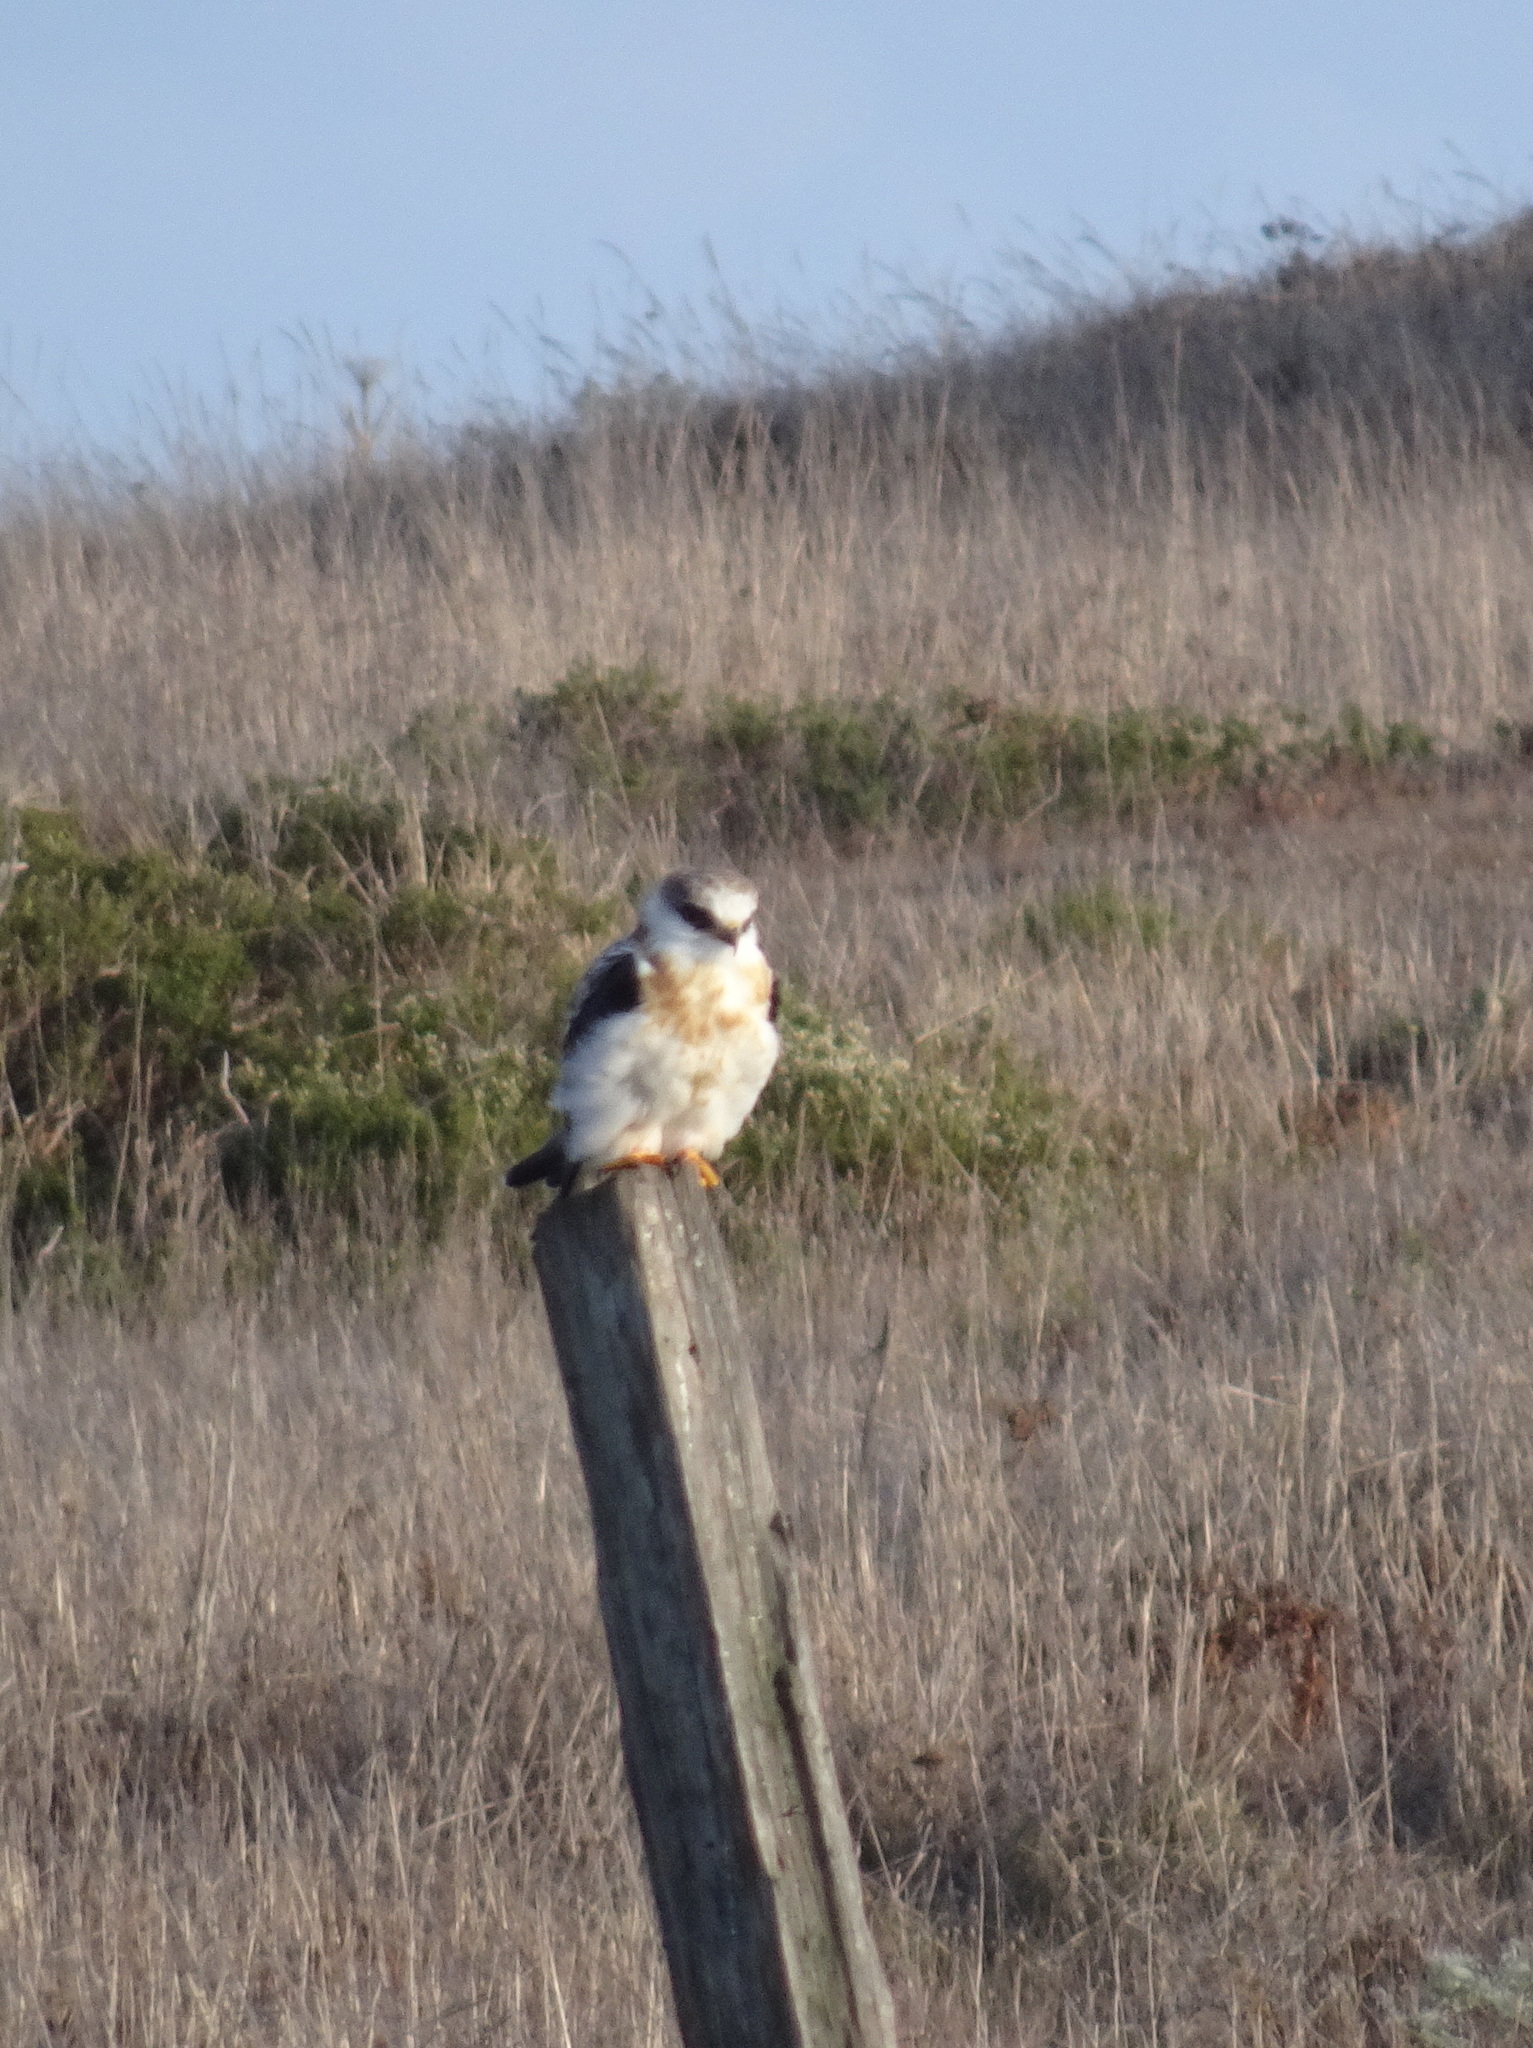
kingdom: Animalia
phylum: Chordata
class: Aves
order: Accipitriformes
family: Accipitridae
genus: Elanus
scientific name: Elanus leucurus
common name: White-tailed kite
